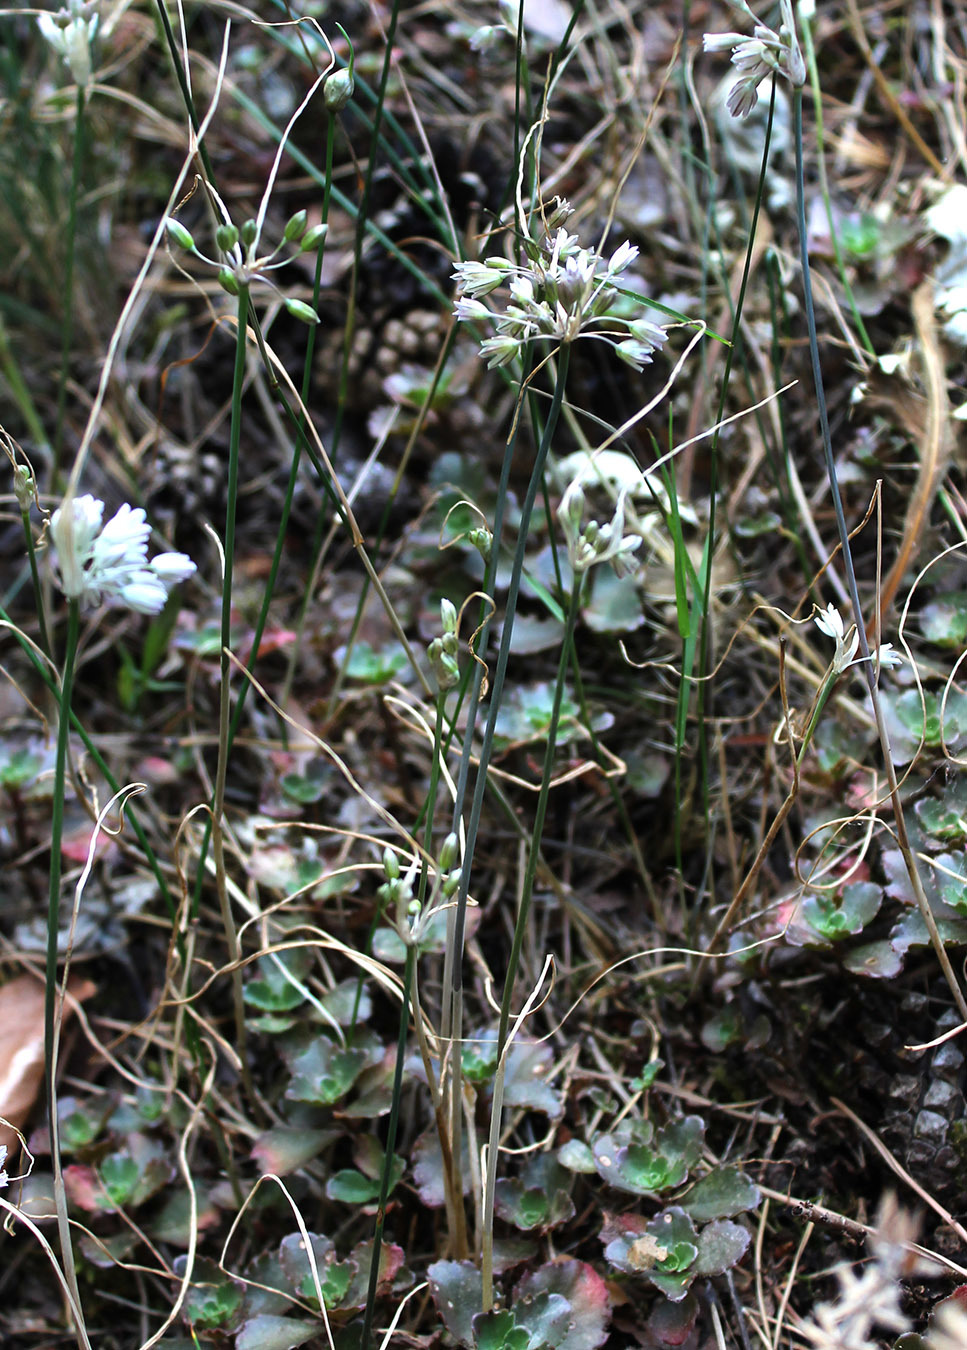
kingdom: Plantae
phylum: Tracheophyta
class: Liliopsida
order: Asparagales
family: Amaryllidaceae
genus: Allium
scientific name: Allium kunthianum
